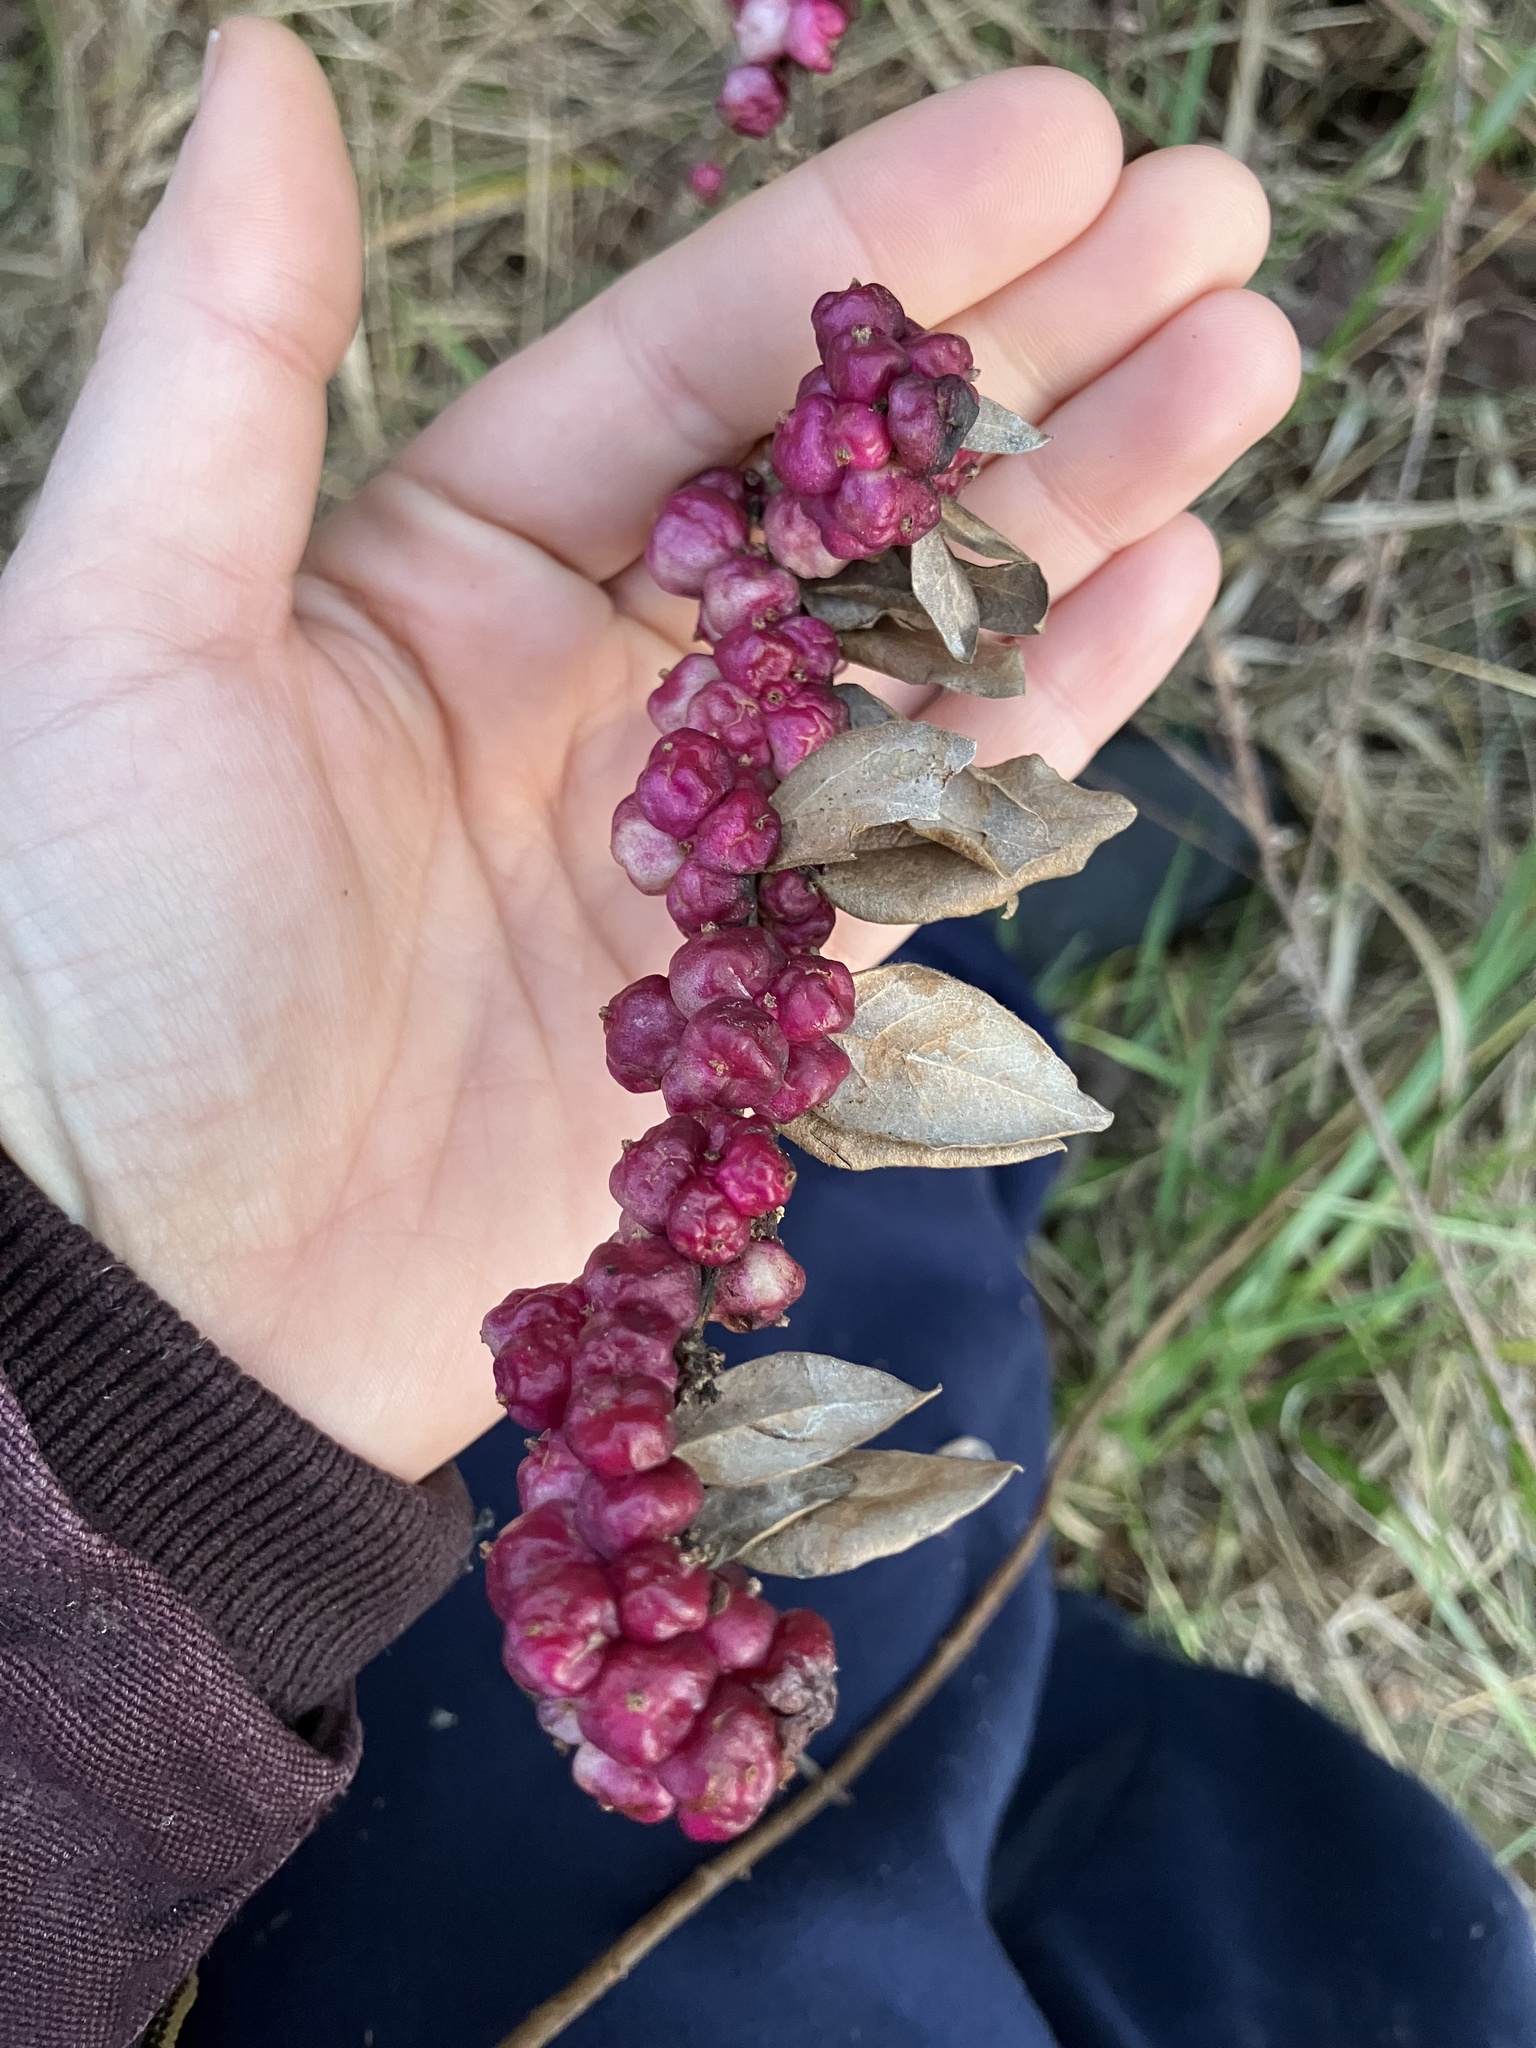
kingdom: Plantae
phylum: Tracheophyta
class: Magnoliopsida
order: Dipsacales
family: Caprifoliaceae
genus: Symphoricarpos
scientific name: Symphoricarpos orbiculatus
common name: Coralberry
